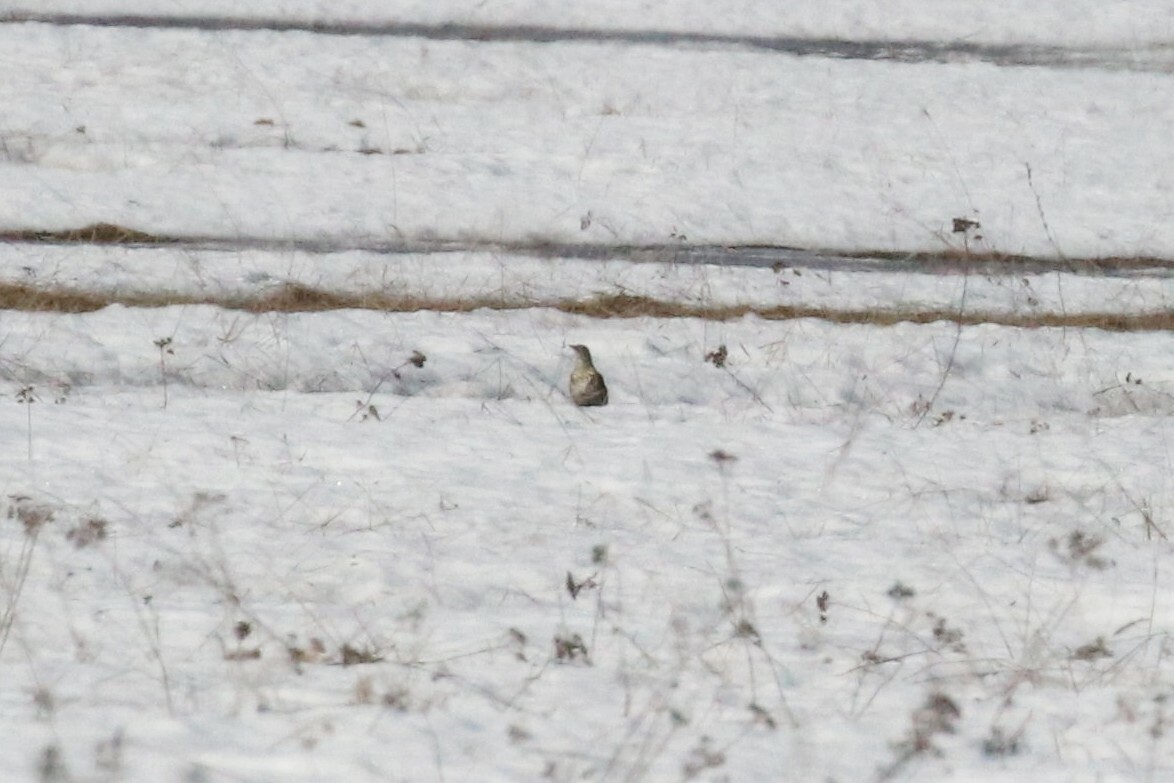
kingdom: Animalia
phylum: Chordata
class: Aves
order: Passeriformes
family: Turdidae
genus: Turdus
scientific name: Turdus viscivorus
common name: Mistle thrush
